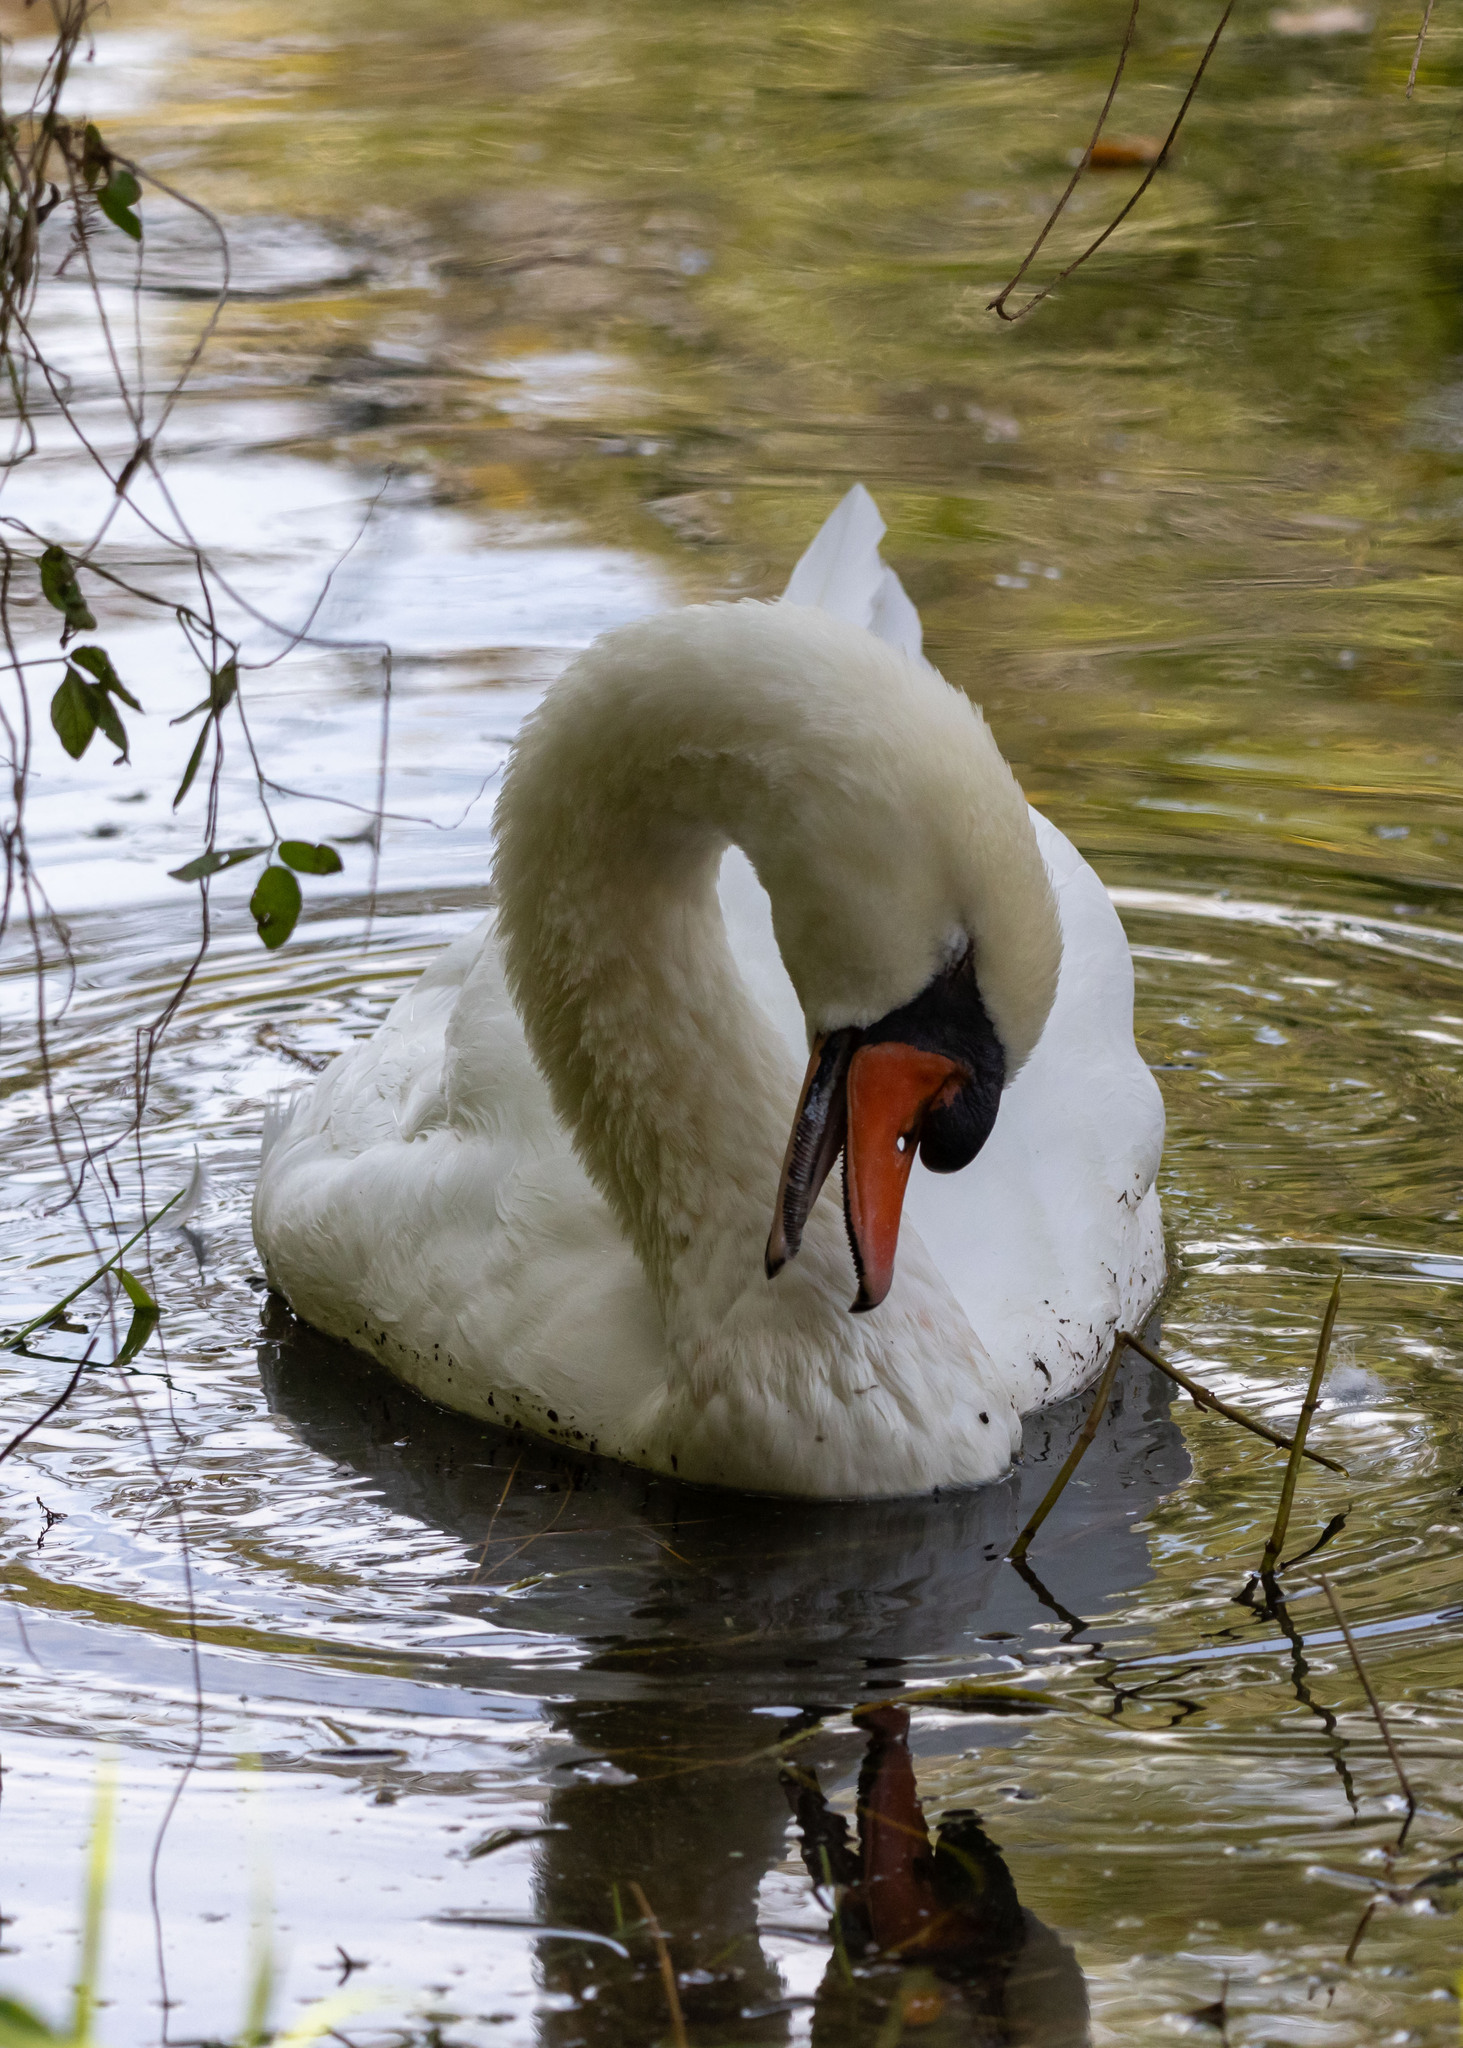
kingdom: Animalia
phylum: Chordata
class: Aves
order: Anseriformes
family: Anatidae
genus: Cygnus
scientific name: Cygnus olor
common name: Mute swan
